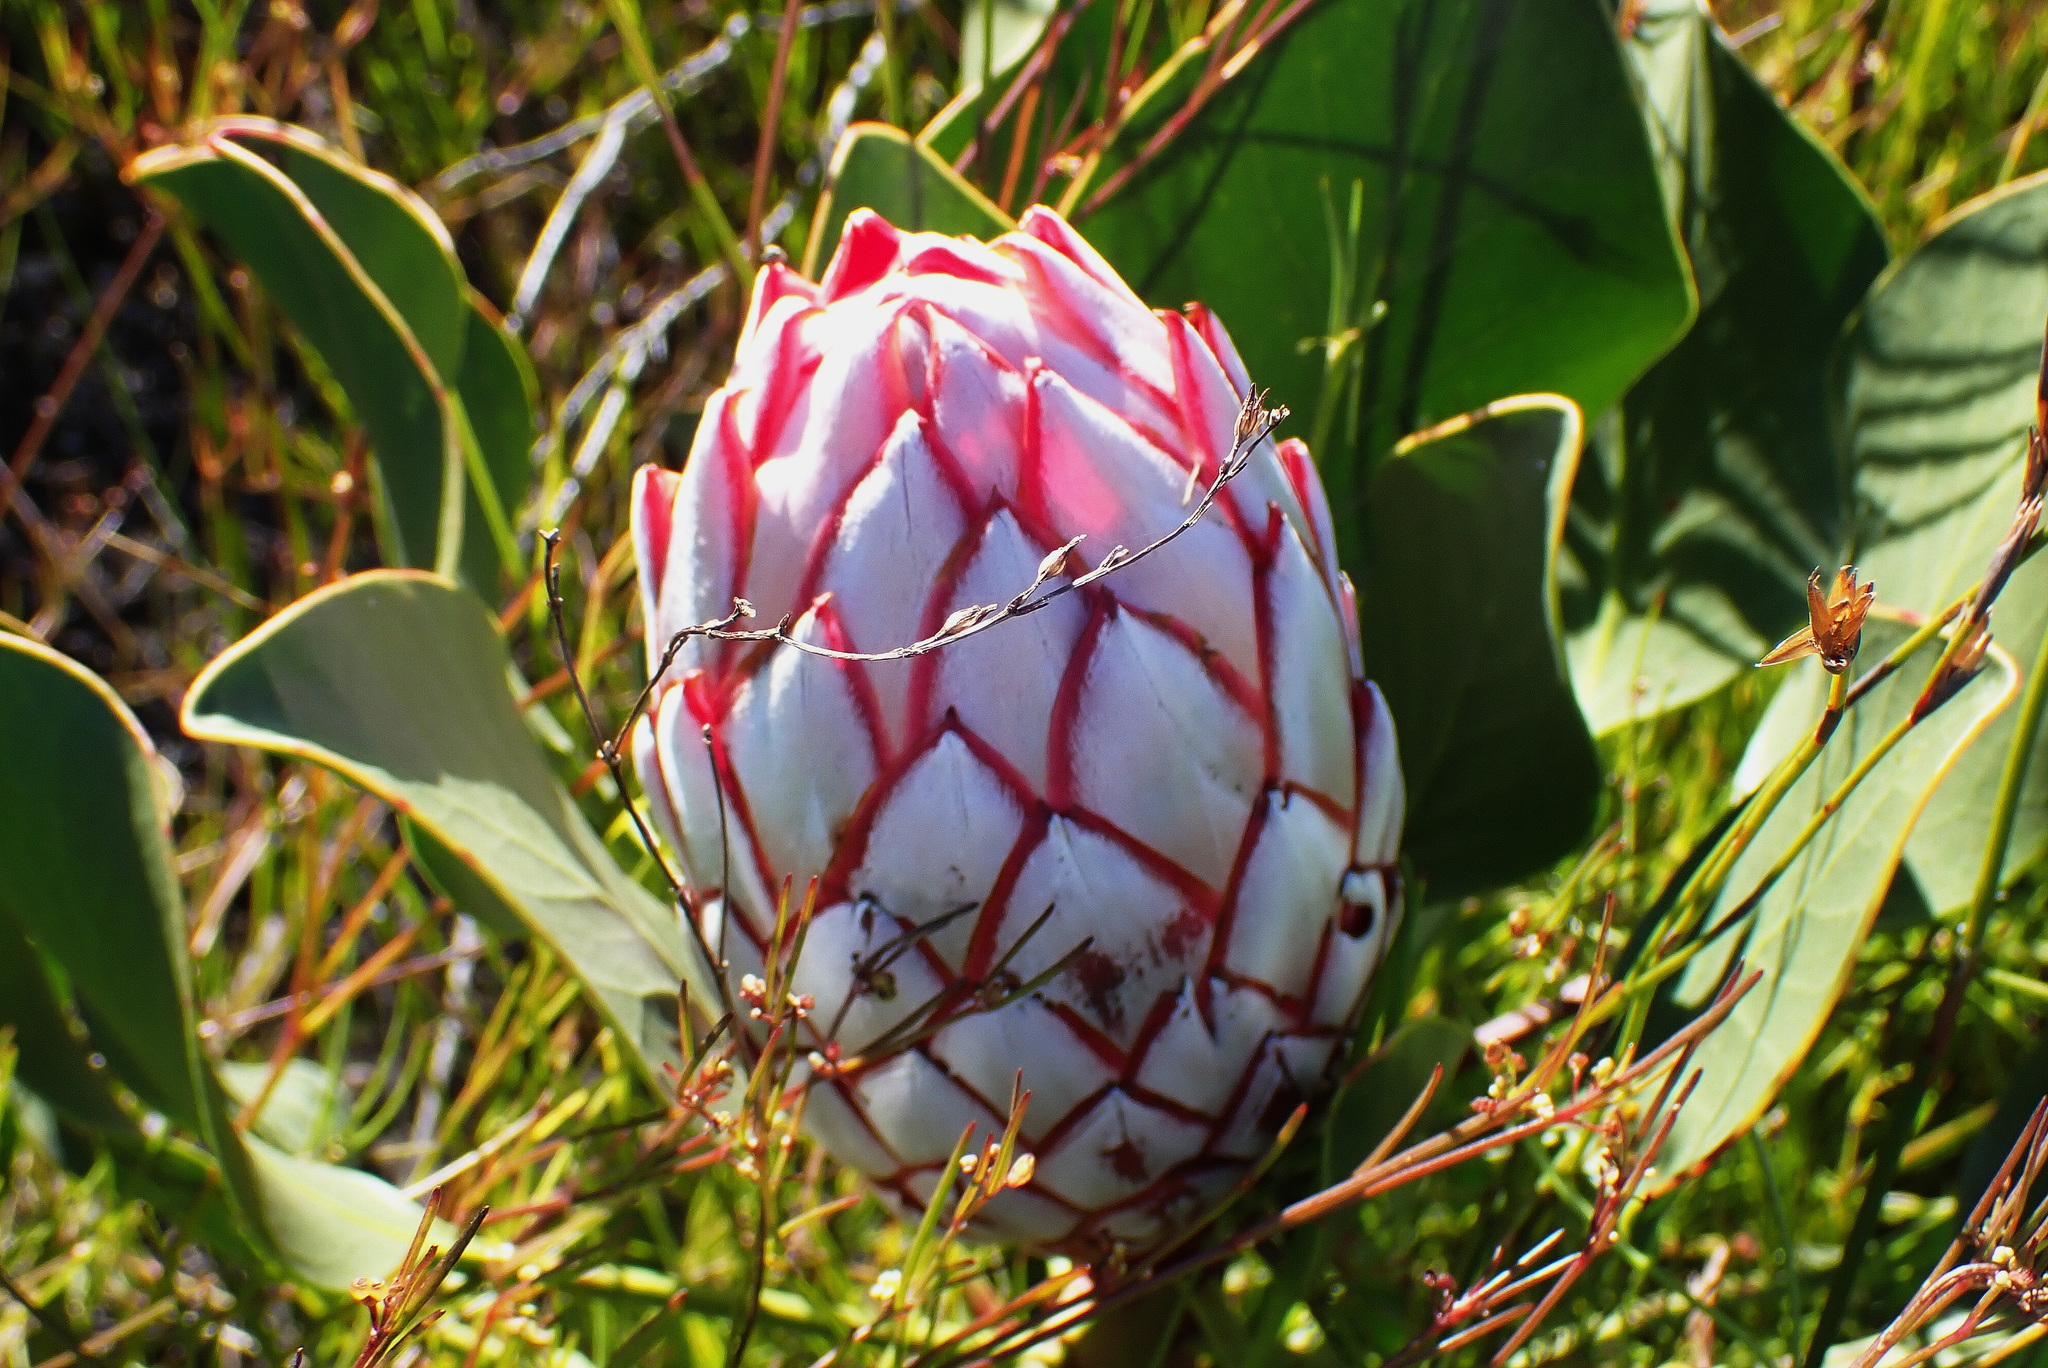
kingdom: Plantae
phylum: Tracheophyta
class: Magnoliopsida
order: Proteales
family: Proteaceae
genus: Protea
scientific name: Protea cynaroides
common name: King protea
